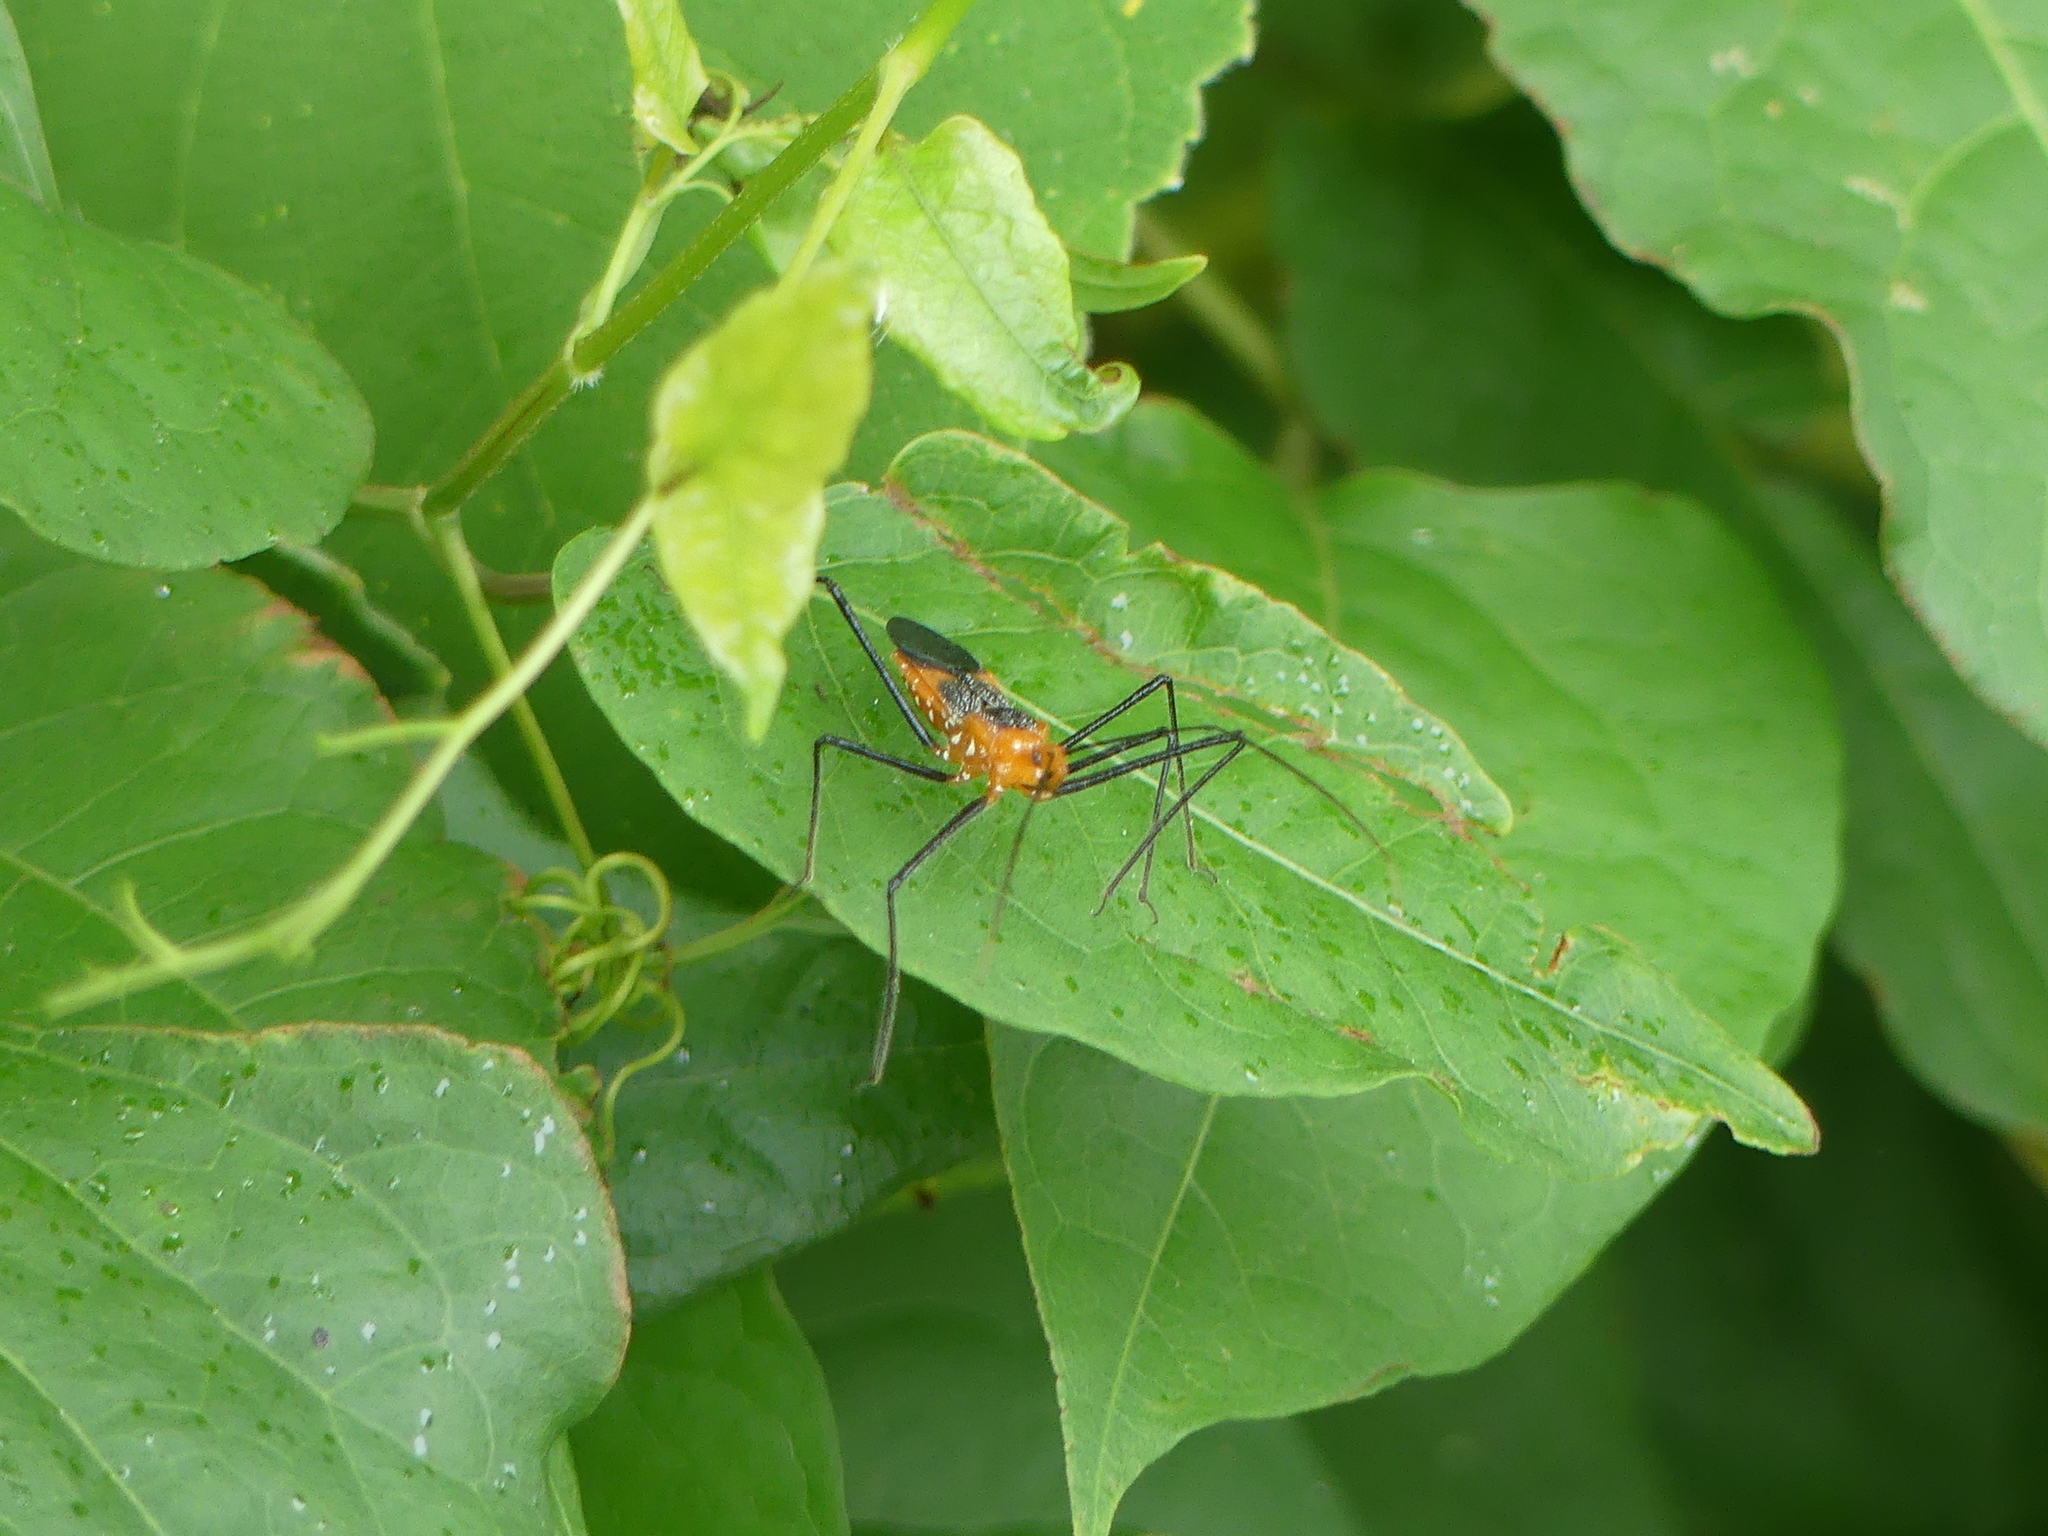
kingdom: Animalia
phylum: Arthropoda
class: Insecta
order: Hemiptera
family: Reduviidae
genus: Zelus
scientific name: Zelus longipes
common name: Milkweed assassin bug
